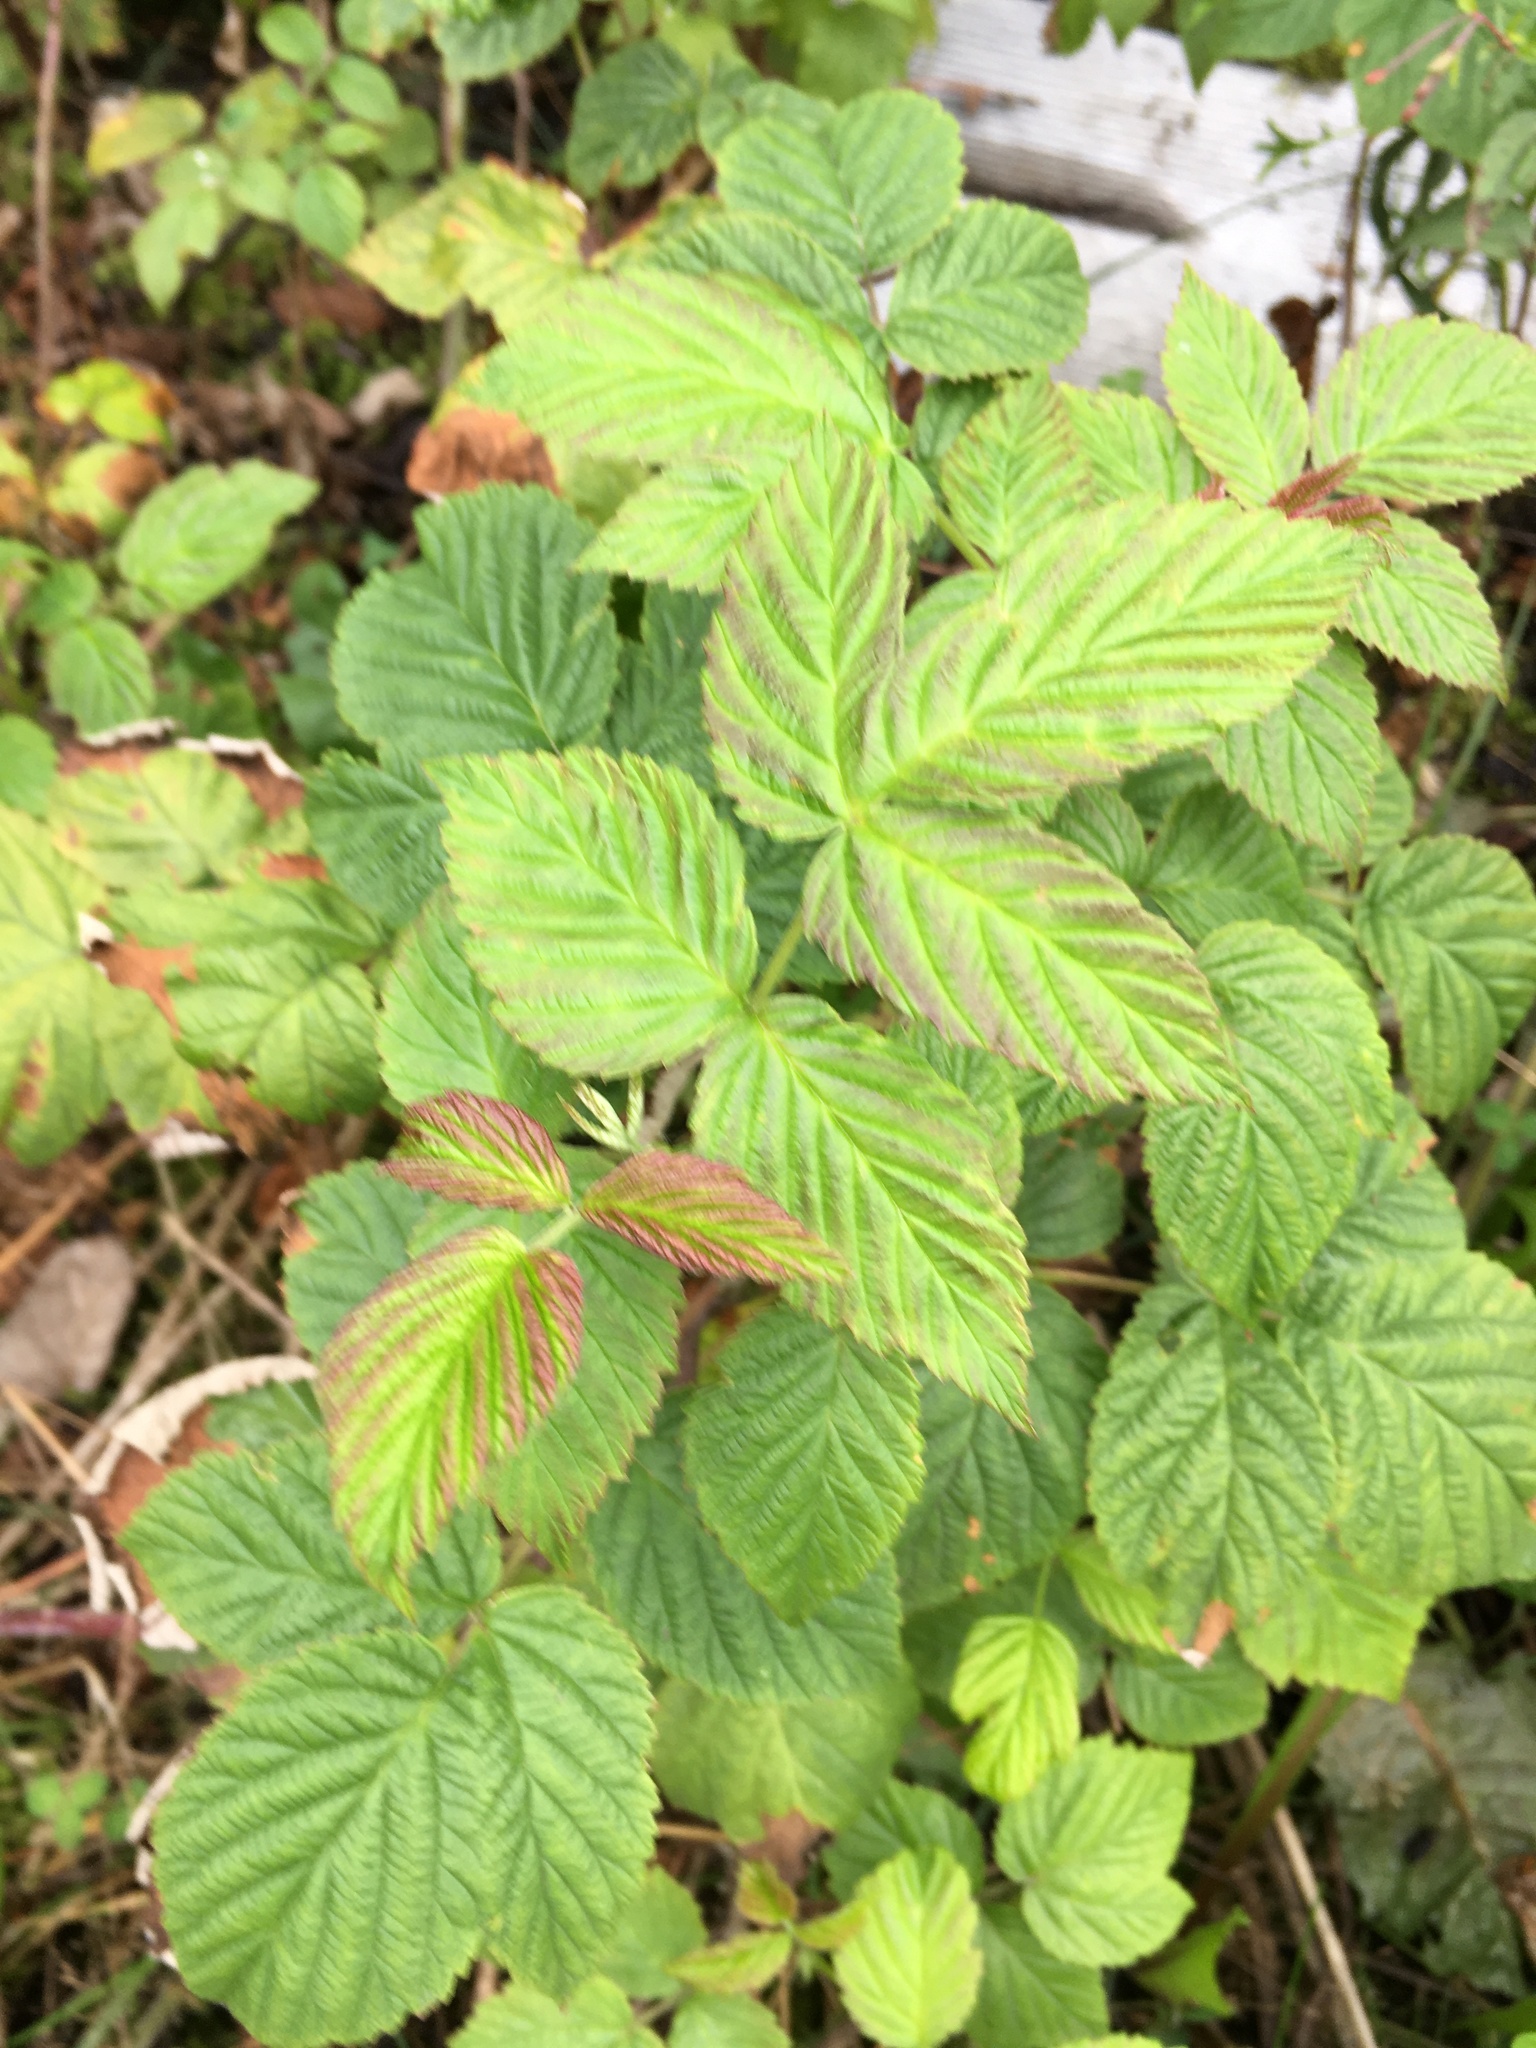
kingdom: Plantae
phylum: Tracheophyta
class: Magnoliopsida
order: Rosales
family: Rosaceae
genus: Rubus
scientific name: Rubus idaeus
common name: Raspberry
